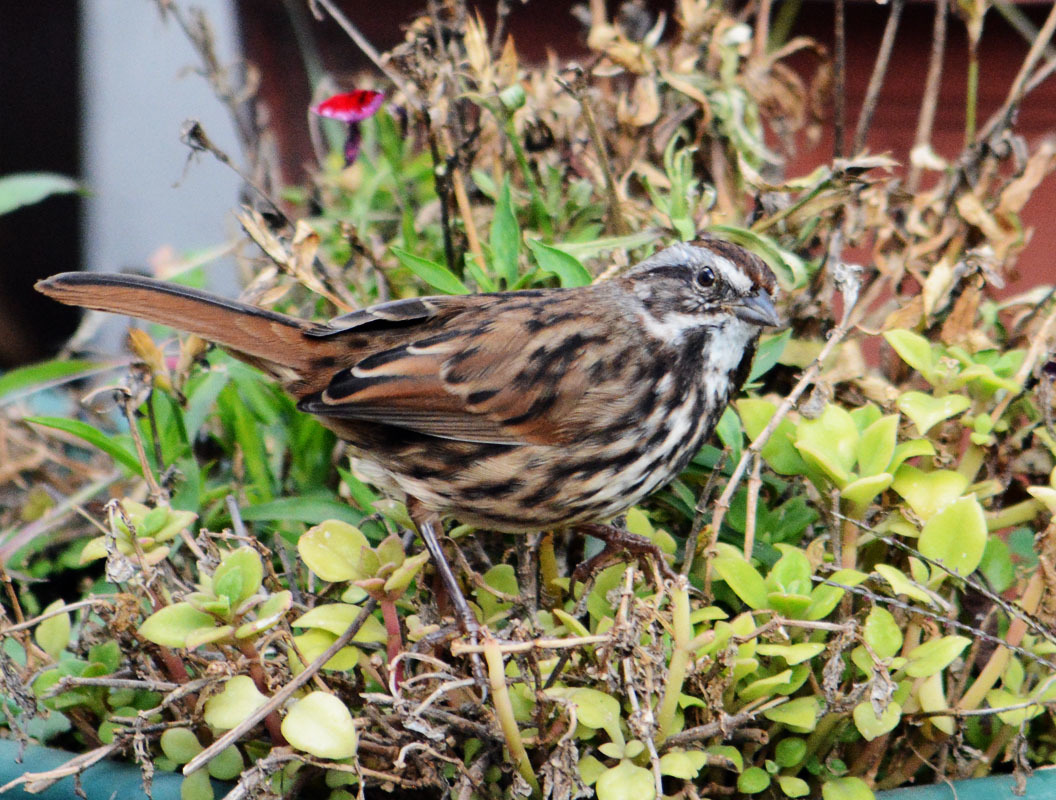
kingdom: Animalia
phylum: Chordata
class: Aves
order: Passeriformes
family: Passerellidae
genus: Melospiza
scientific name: Melospiza melodia
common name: Song sparrow
